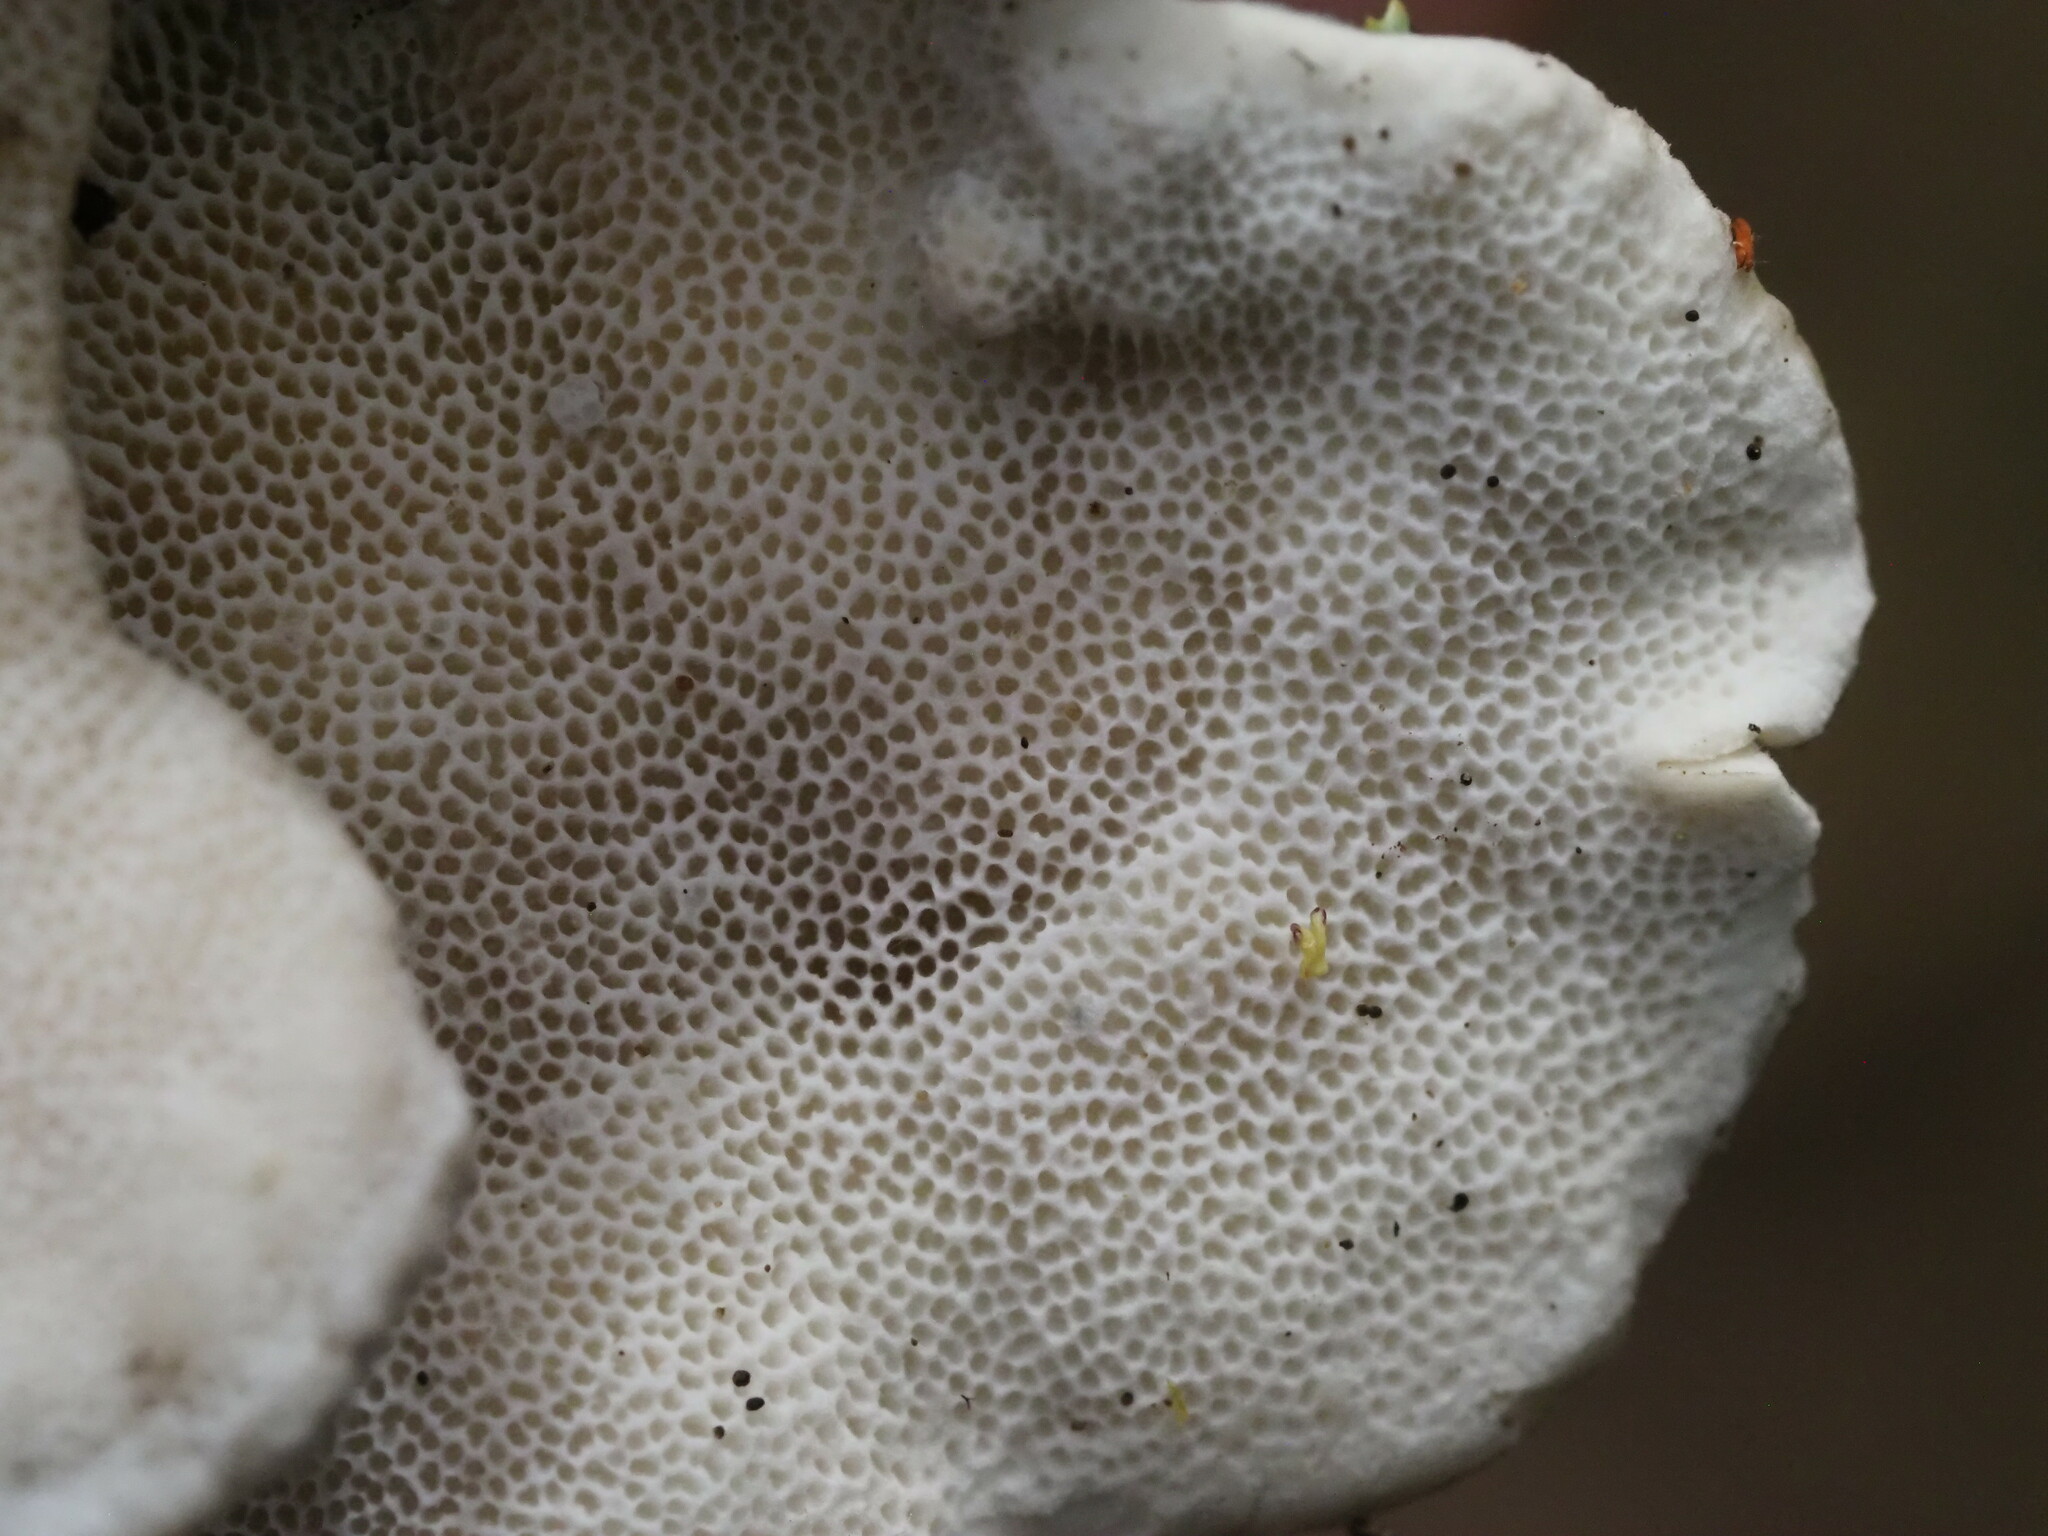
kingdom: Fungi
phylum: Basidiomycota
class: Agaricomycetes
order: Polyporales
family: Polyporaceae
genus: Trametes
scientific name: Trametes hirsuta
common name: Hairy bracket
